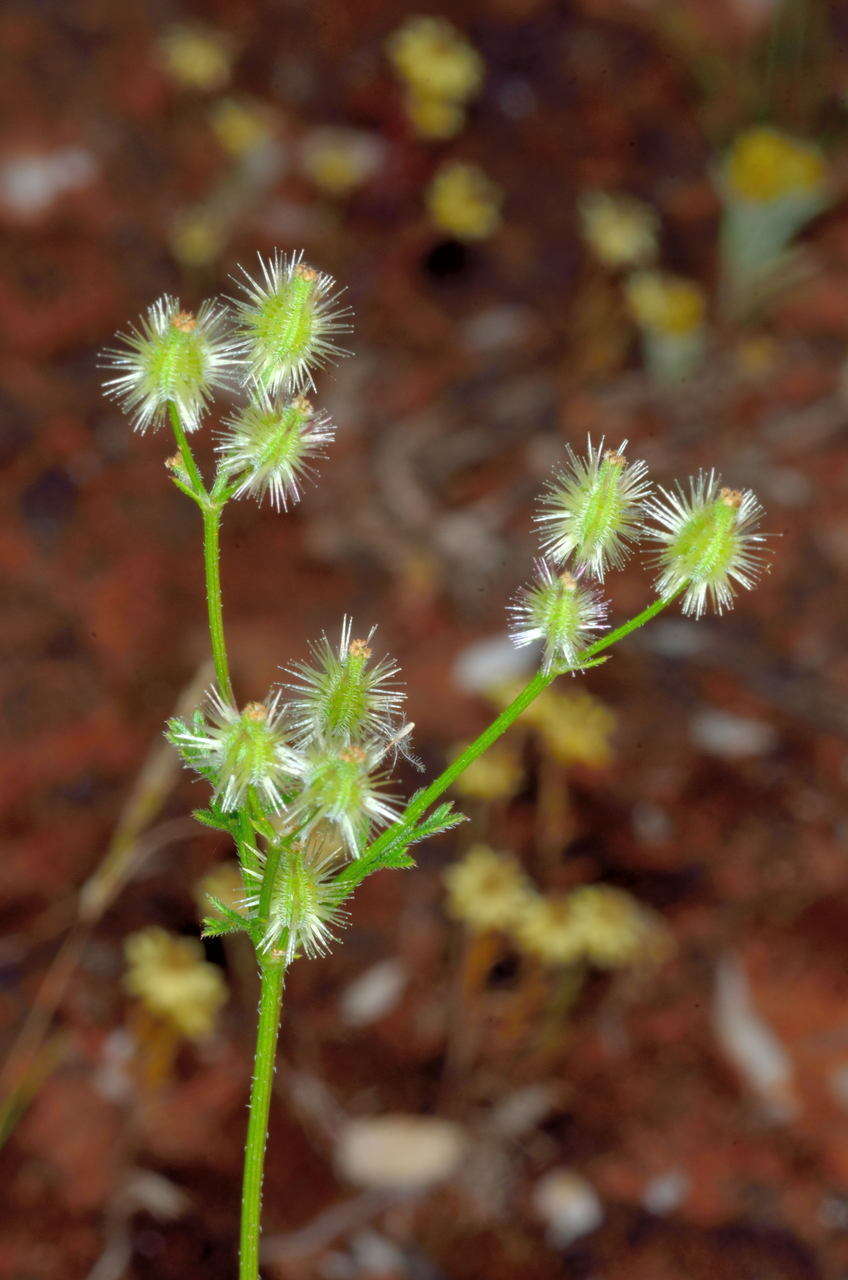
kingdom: Plantae
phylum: Tracheophyta
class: Magnoliopsida
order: Apiales
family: Apiaceae
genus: Daucus
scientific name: Daucus glochidiatus
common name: Australian carrot
